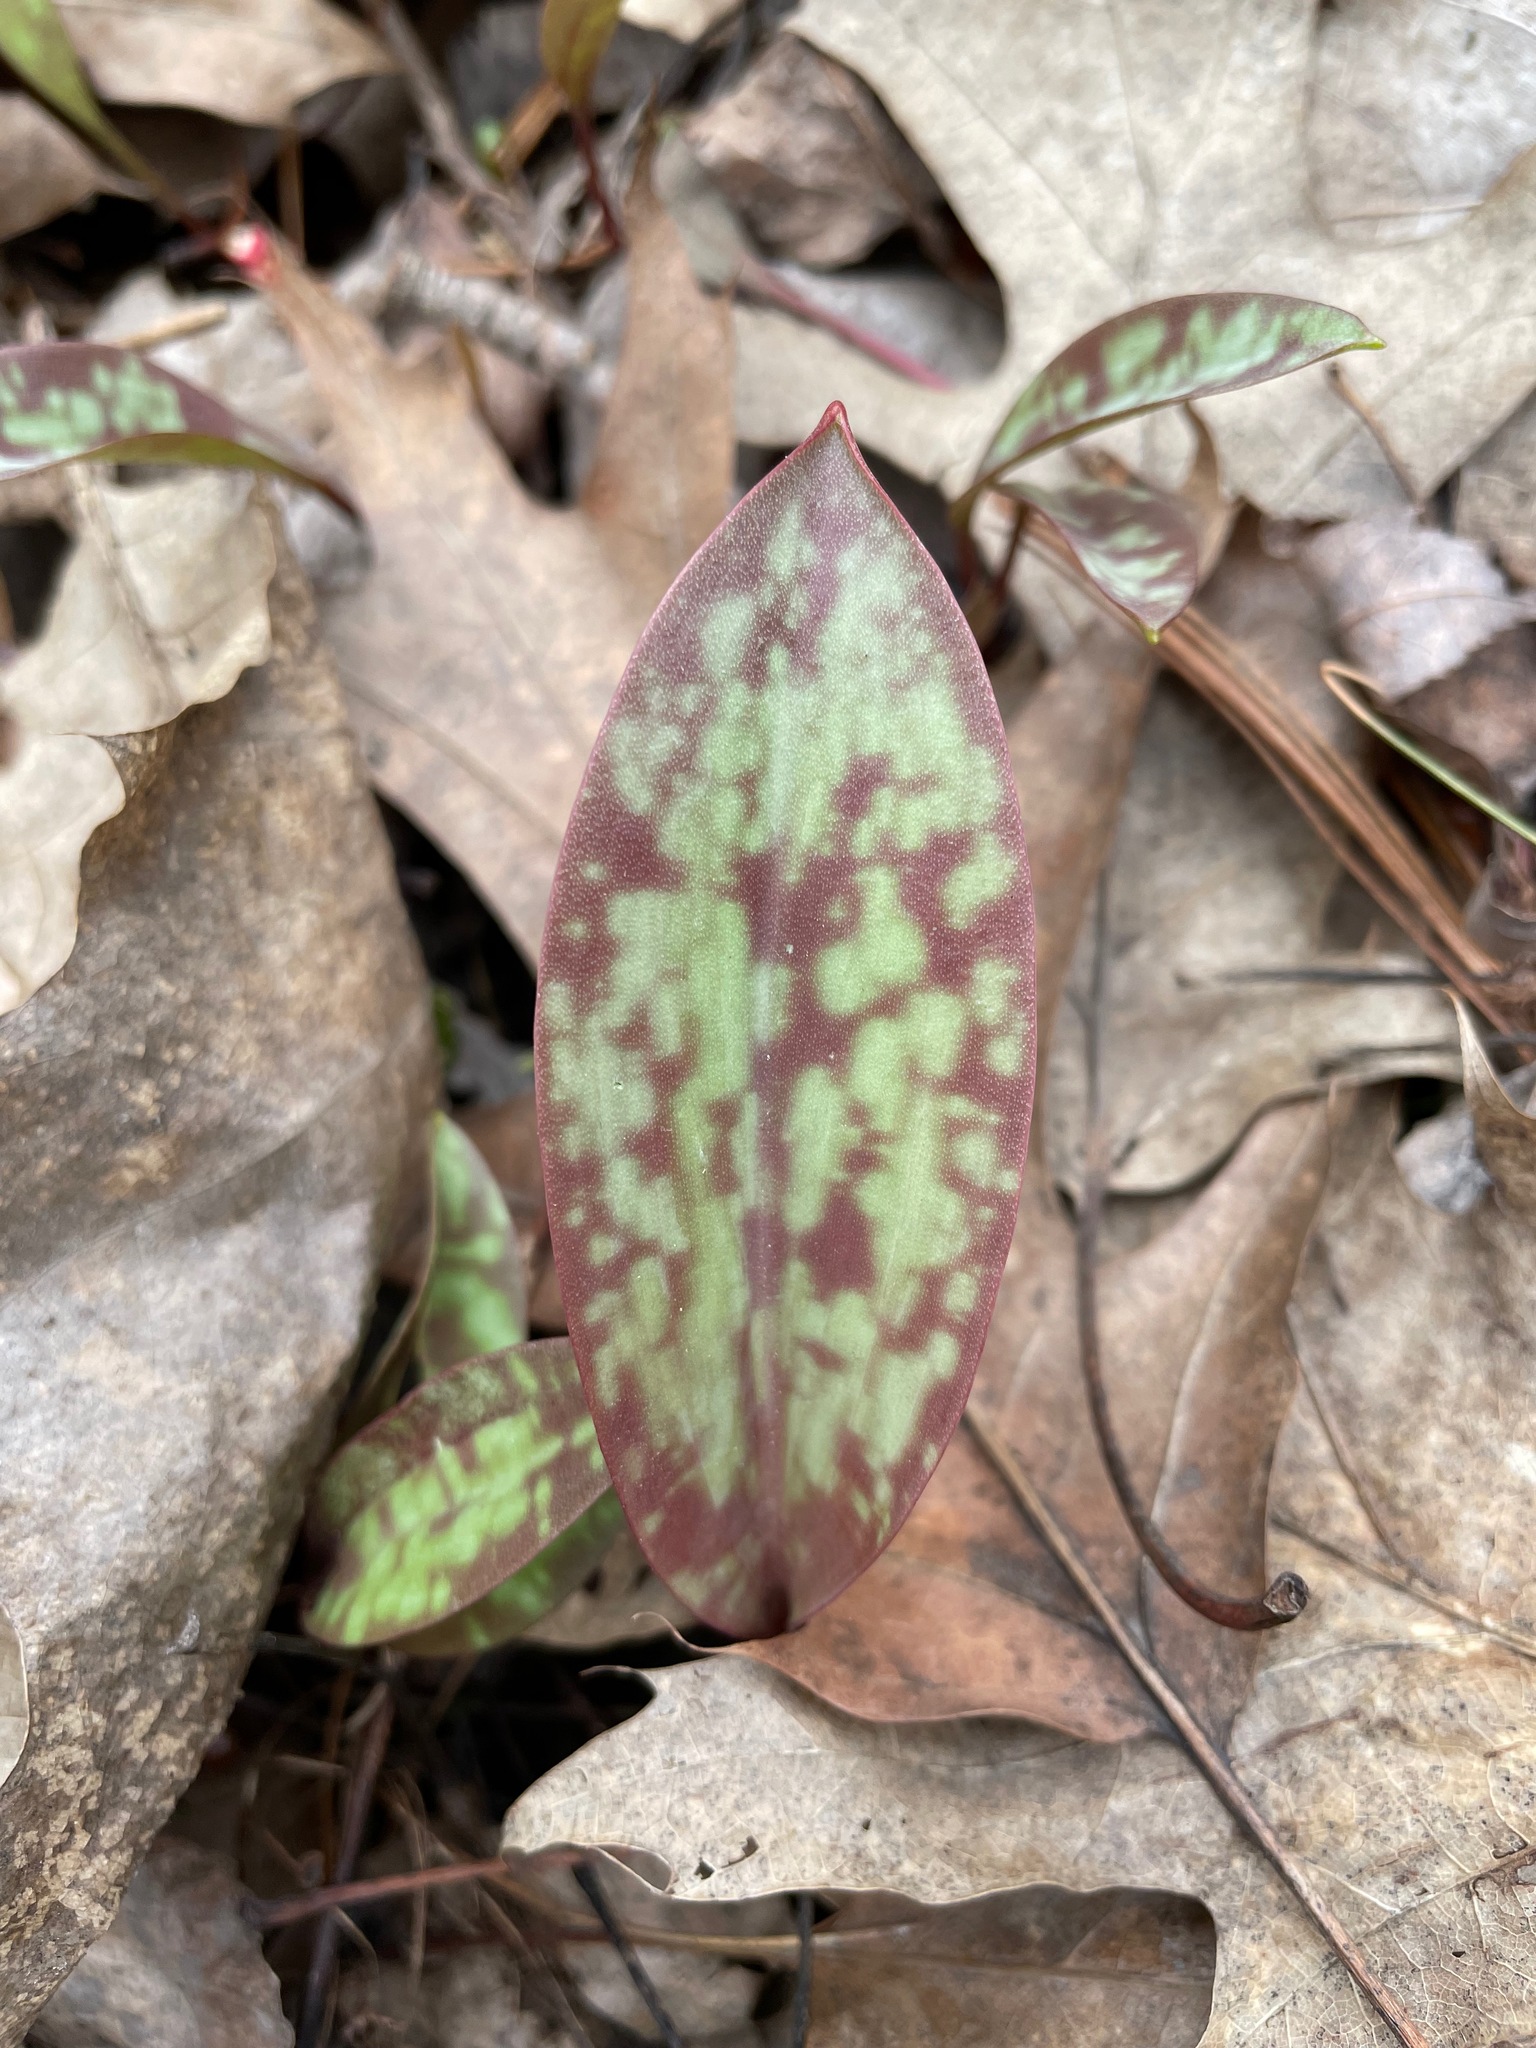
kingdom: Plantae
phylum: Tracheophyta
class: Liliopsida
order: Liliales
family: Liliaceae
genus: Erythronium
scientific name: Erythronium americanum
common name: Yellow adder's-tongue
